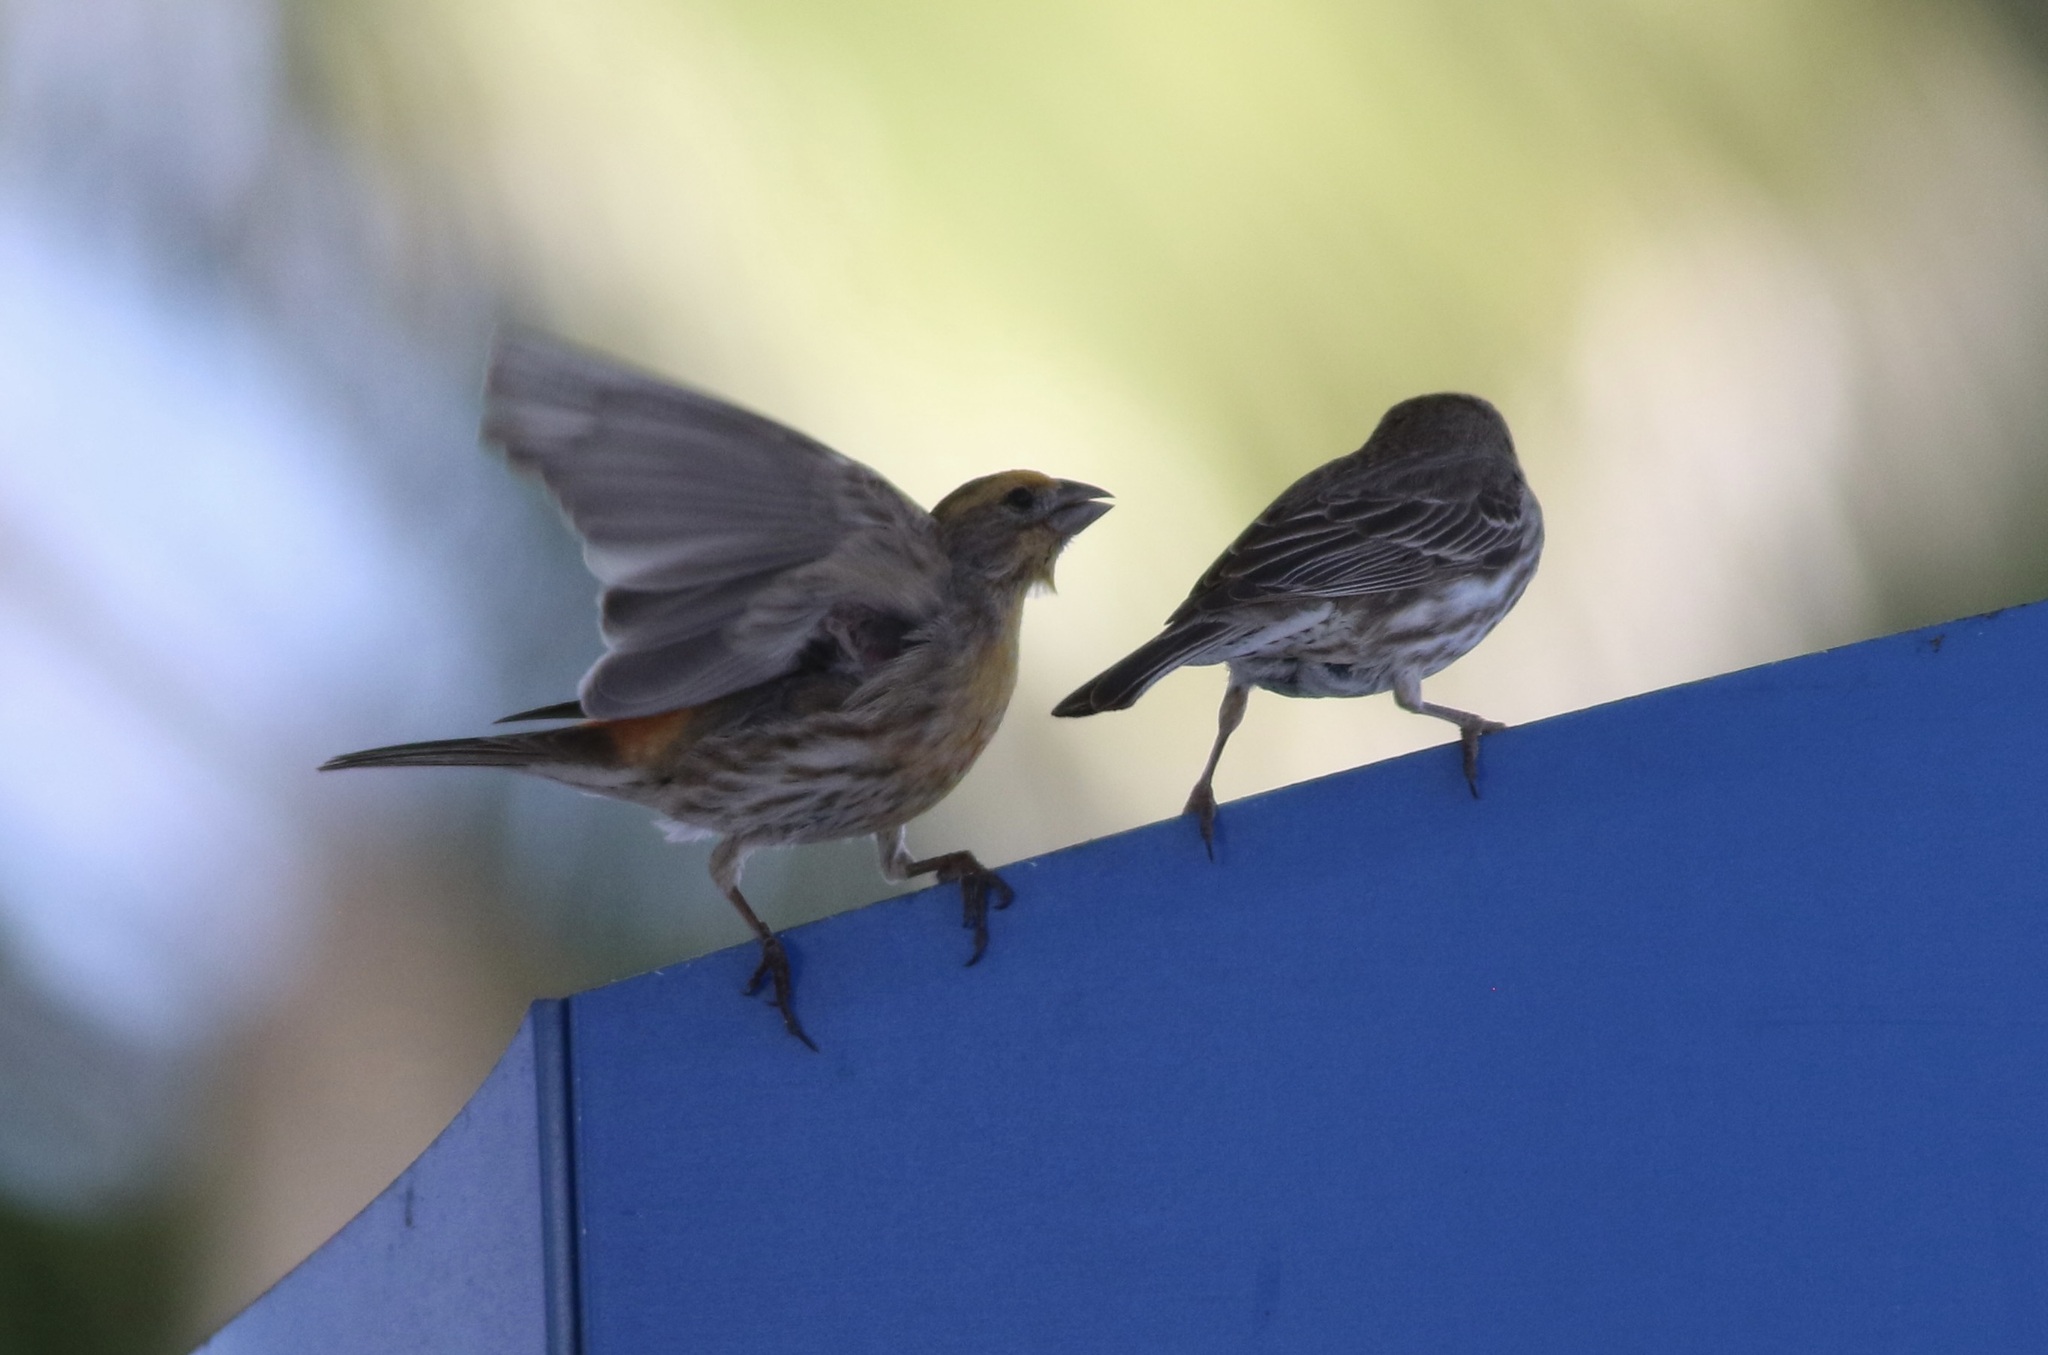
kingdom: Animalia
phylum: Chordata
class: Aves
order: Passeriformes
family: Fringillidae
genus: Haemorhous
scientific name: Haemorhous mexicanus
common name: House finch
